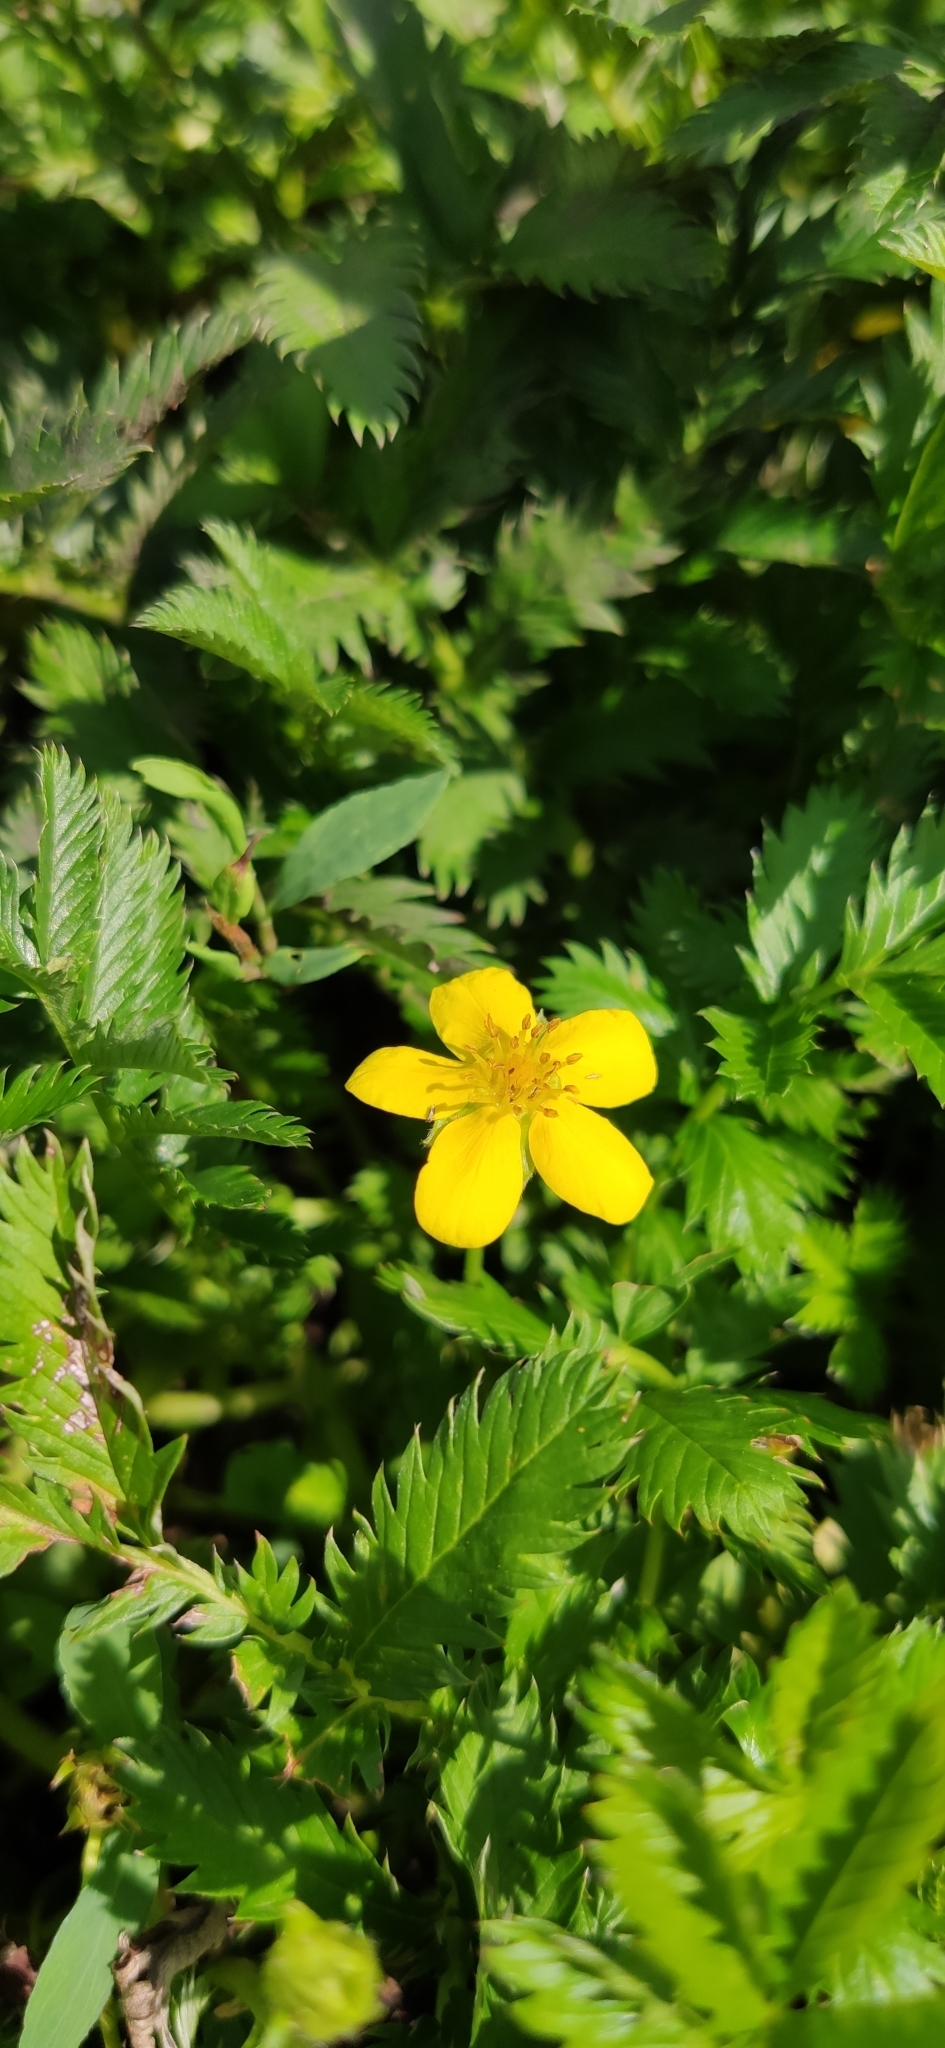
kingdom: Plantae
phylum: Tracheophyta
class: Magnoliopsida
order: Rosales
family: Rosaceae
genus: Argentina
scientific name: Argentina anserina
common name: Common silverweed
